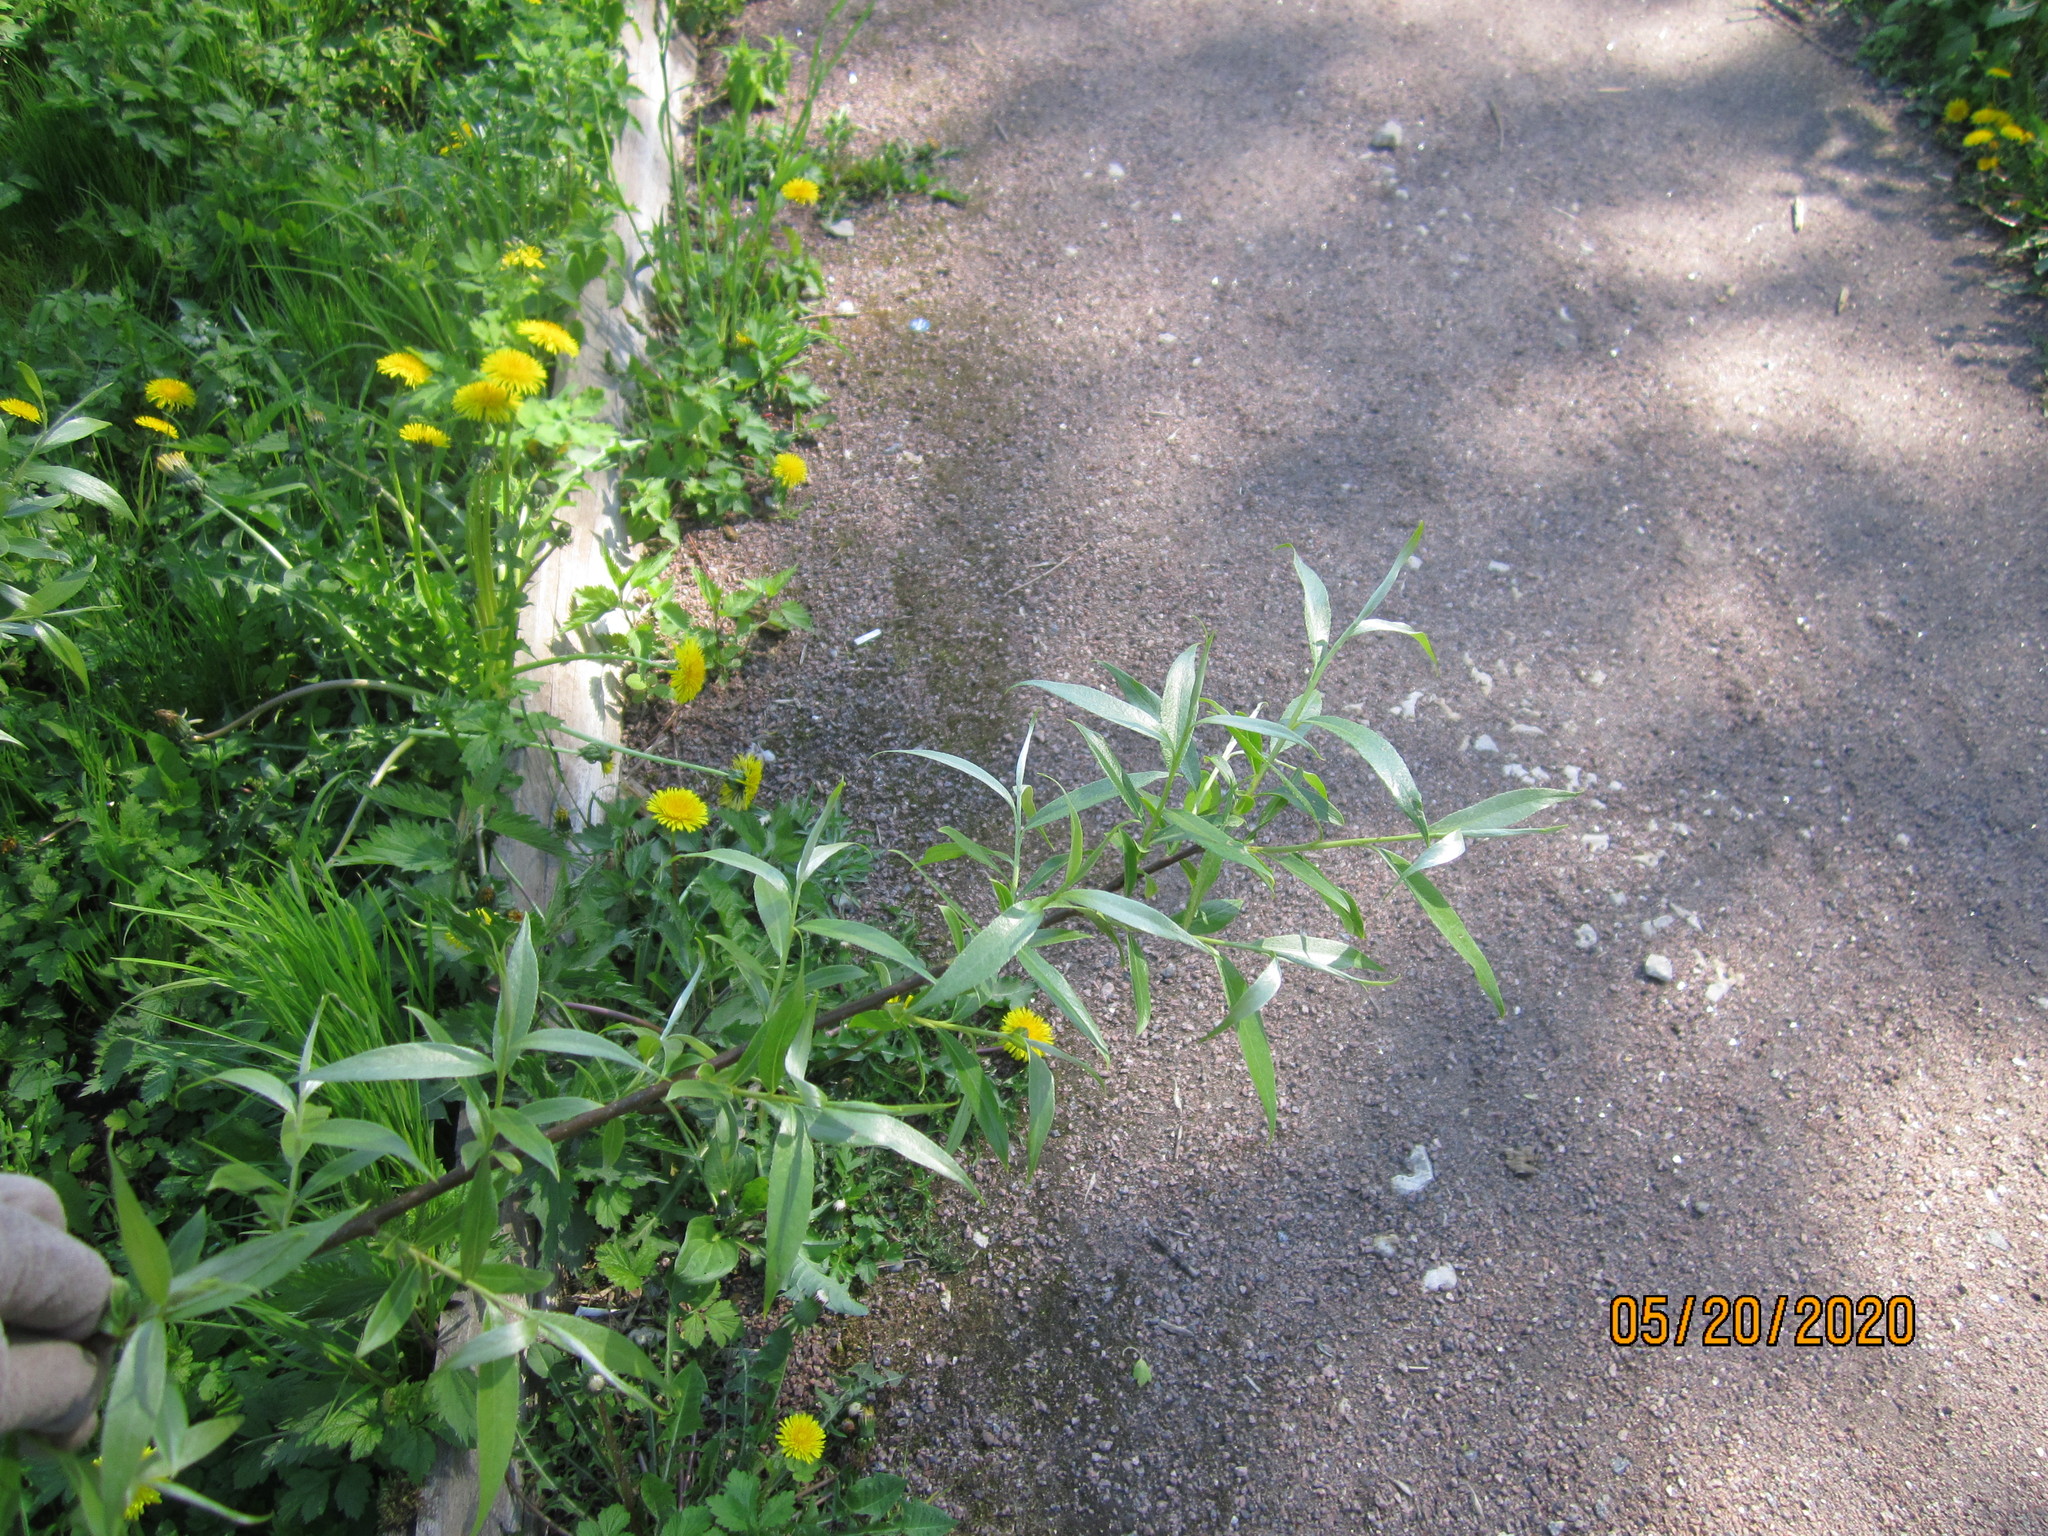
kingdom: Plantae
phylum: Tracheophyta
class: Magnoliopsida
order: Malpighiales
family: Salicaceae
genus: Salix
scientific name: Salix alba
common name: White willow
